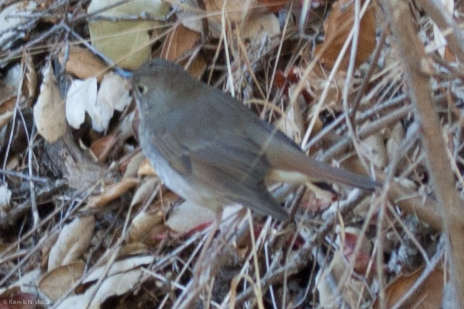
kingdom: Animalia
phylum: Chordata
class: Aves
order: Passeriformes
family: Turdidae
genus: Catharus
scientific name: Catharus guttatus
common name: Hermit thrush
